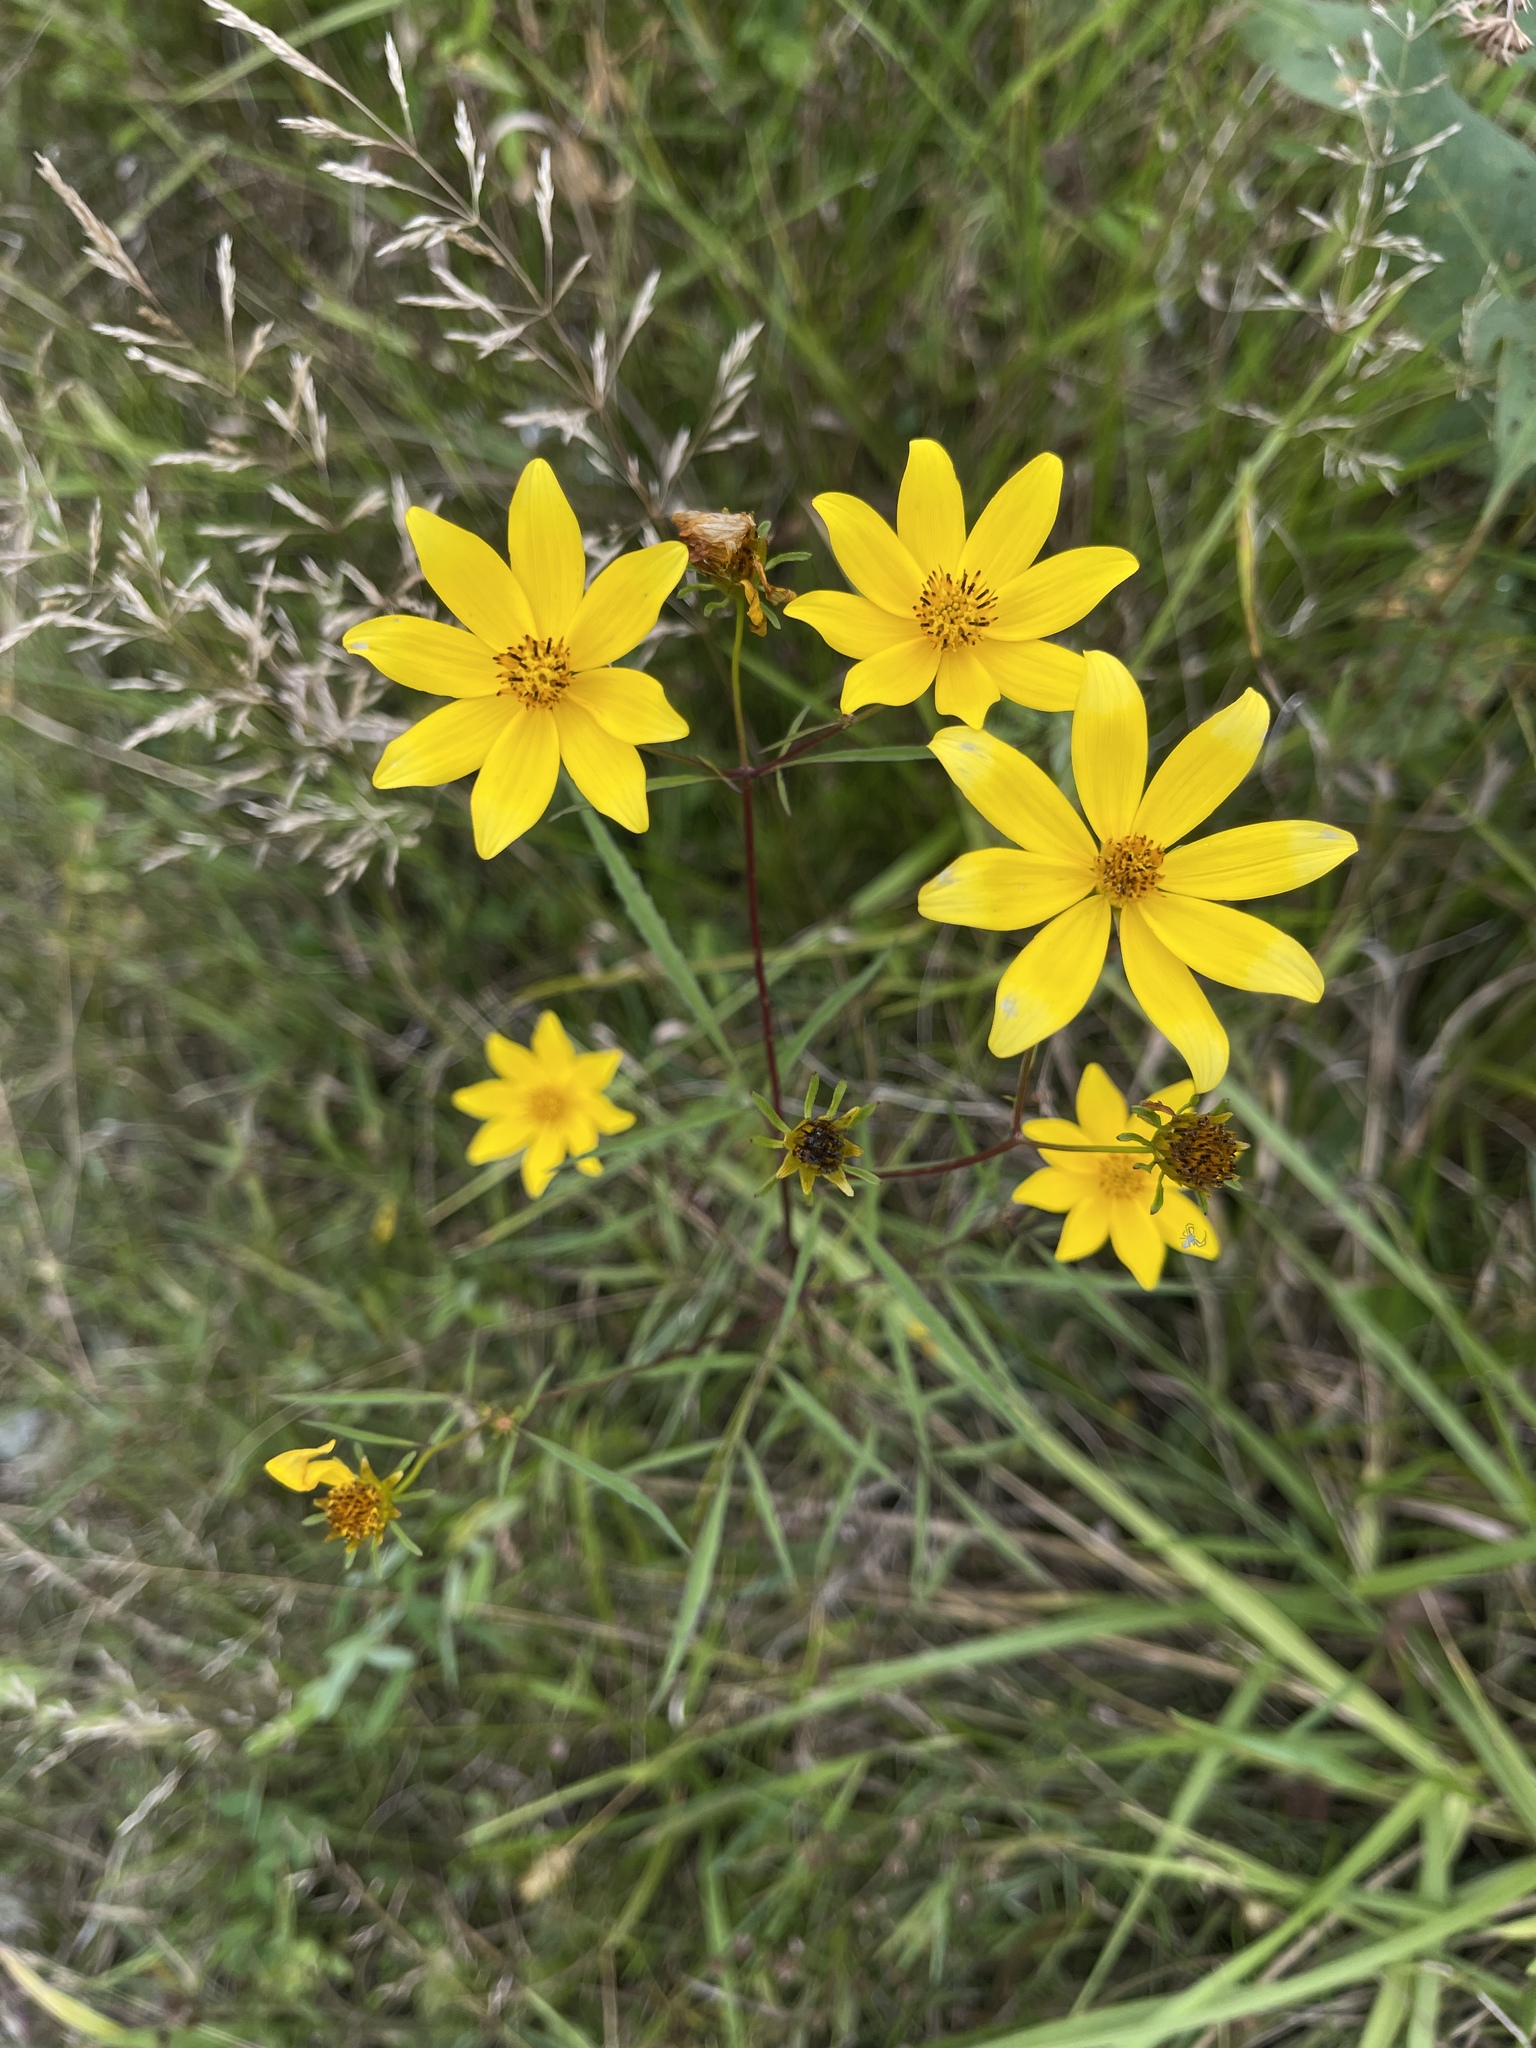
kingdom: Plantae
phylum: Tracheophyta
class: Magnoliopsida
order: Asterales
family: Asteraceae
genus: Bidens
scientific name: Bidens trichosperma
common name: Crowned beggarticks
